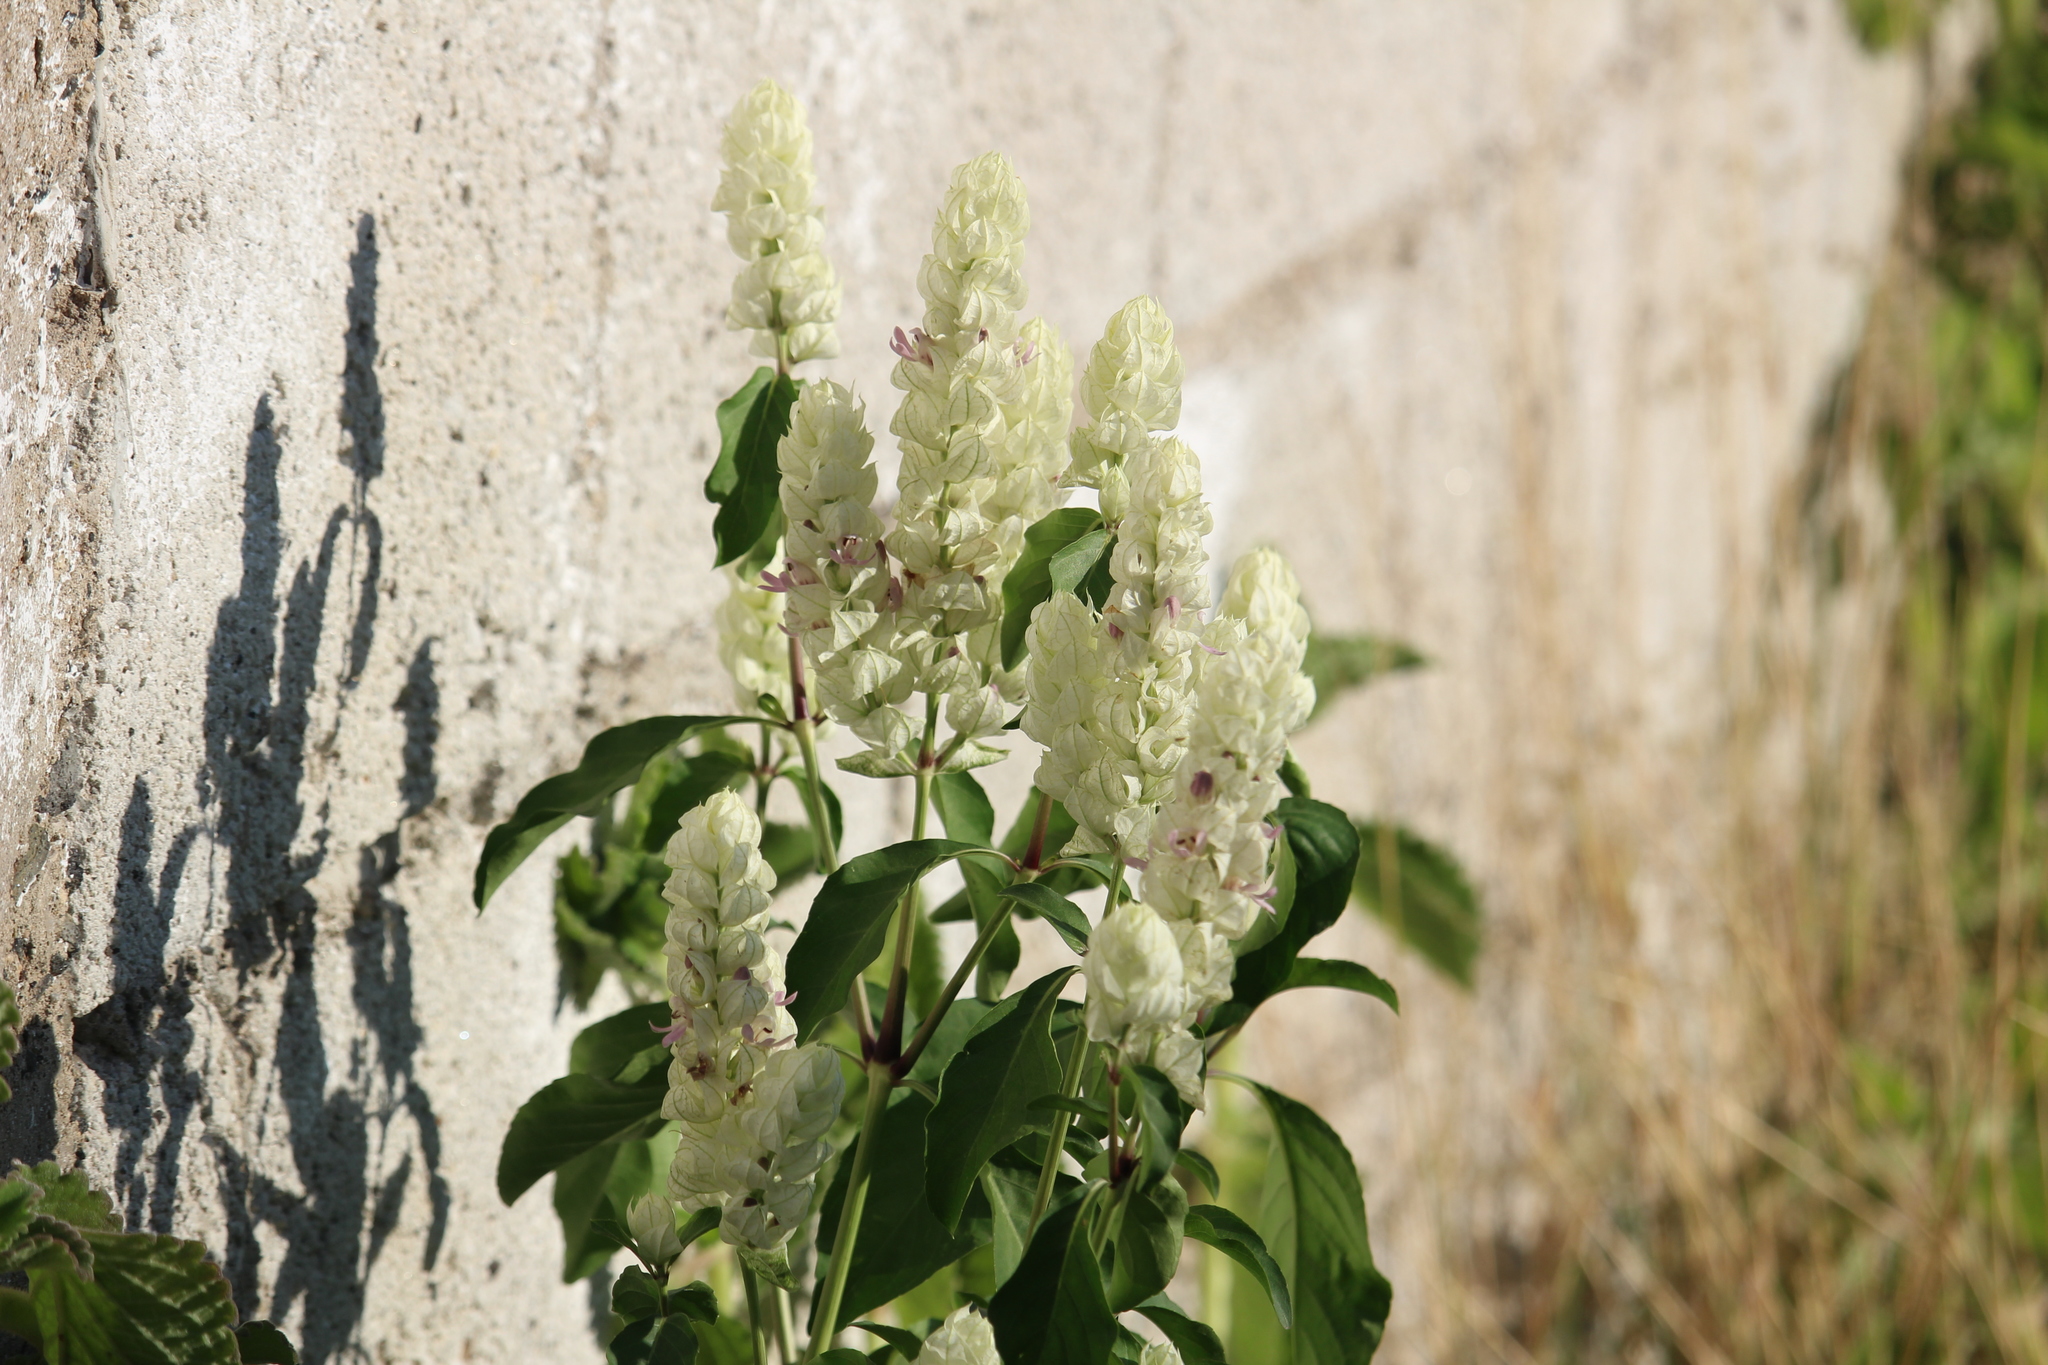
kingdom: Plantae
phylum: Tracheophyta
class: Magnoliopsida
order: Lamiales
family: Acanthaceae
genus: Justicia
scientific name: Justicia betonica
